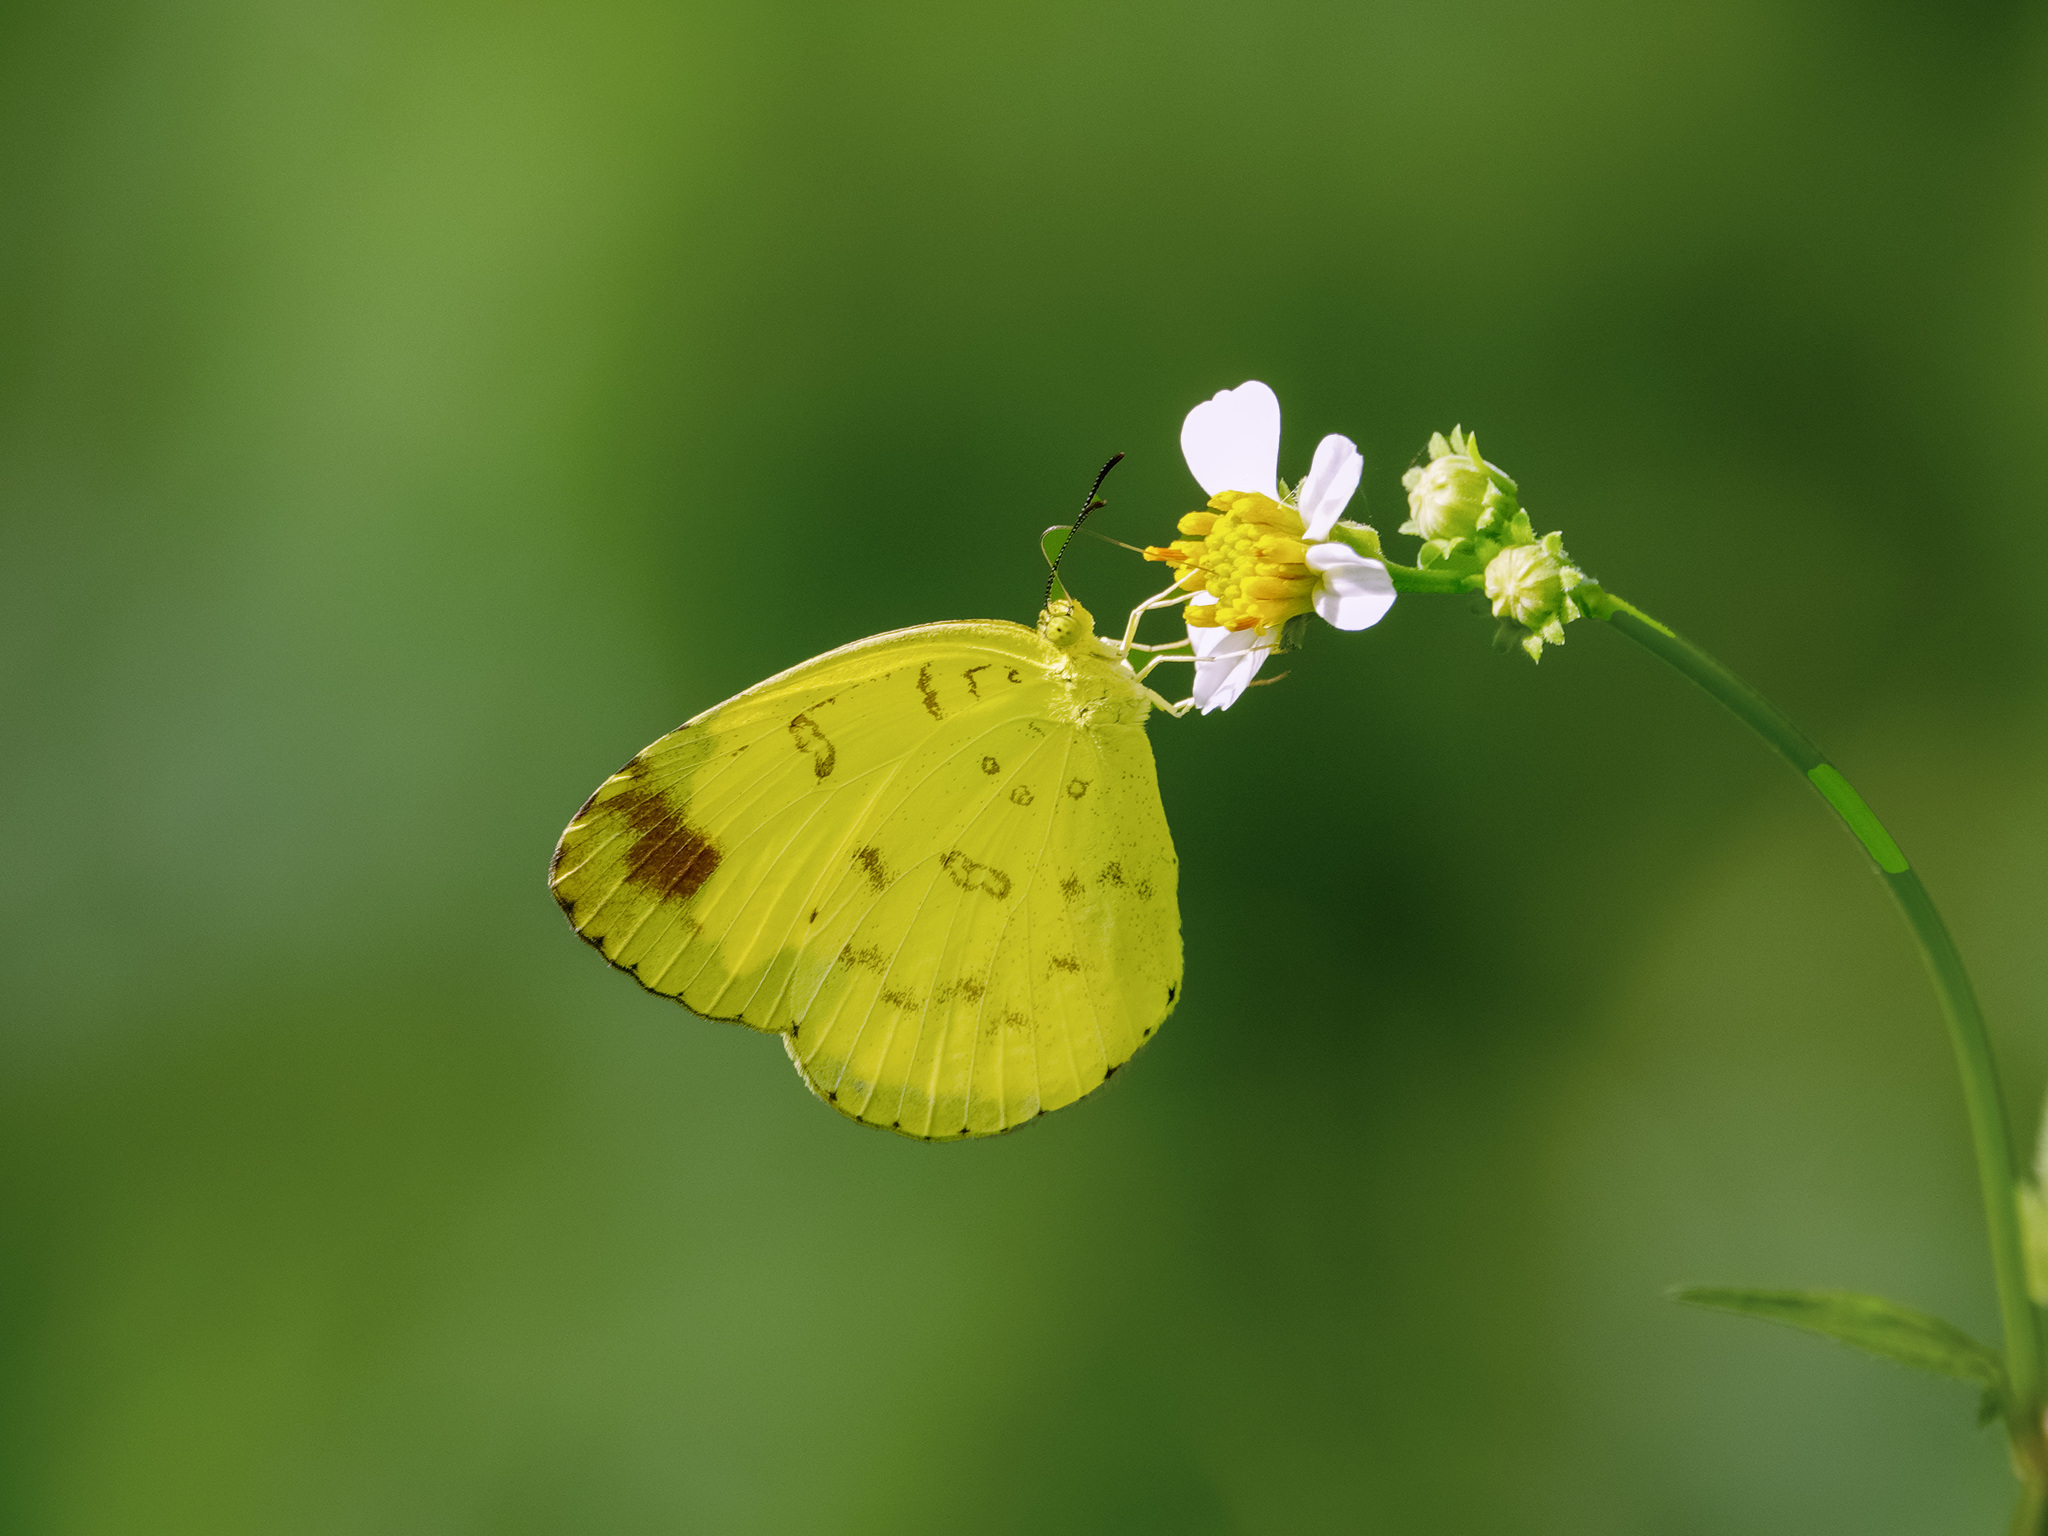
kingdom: Animalia
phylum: Arthropoda
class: Insecta
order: Lepidoptera
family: Pieridae
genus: Eurema
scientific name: Eurema blanda
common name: Three-spot grass yellow
